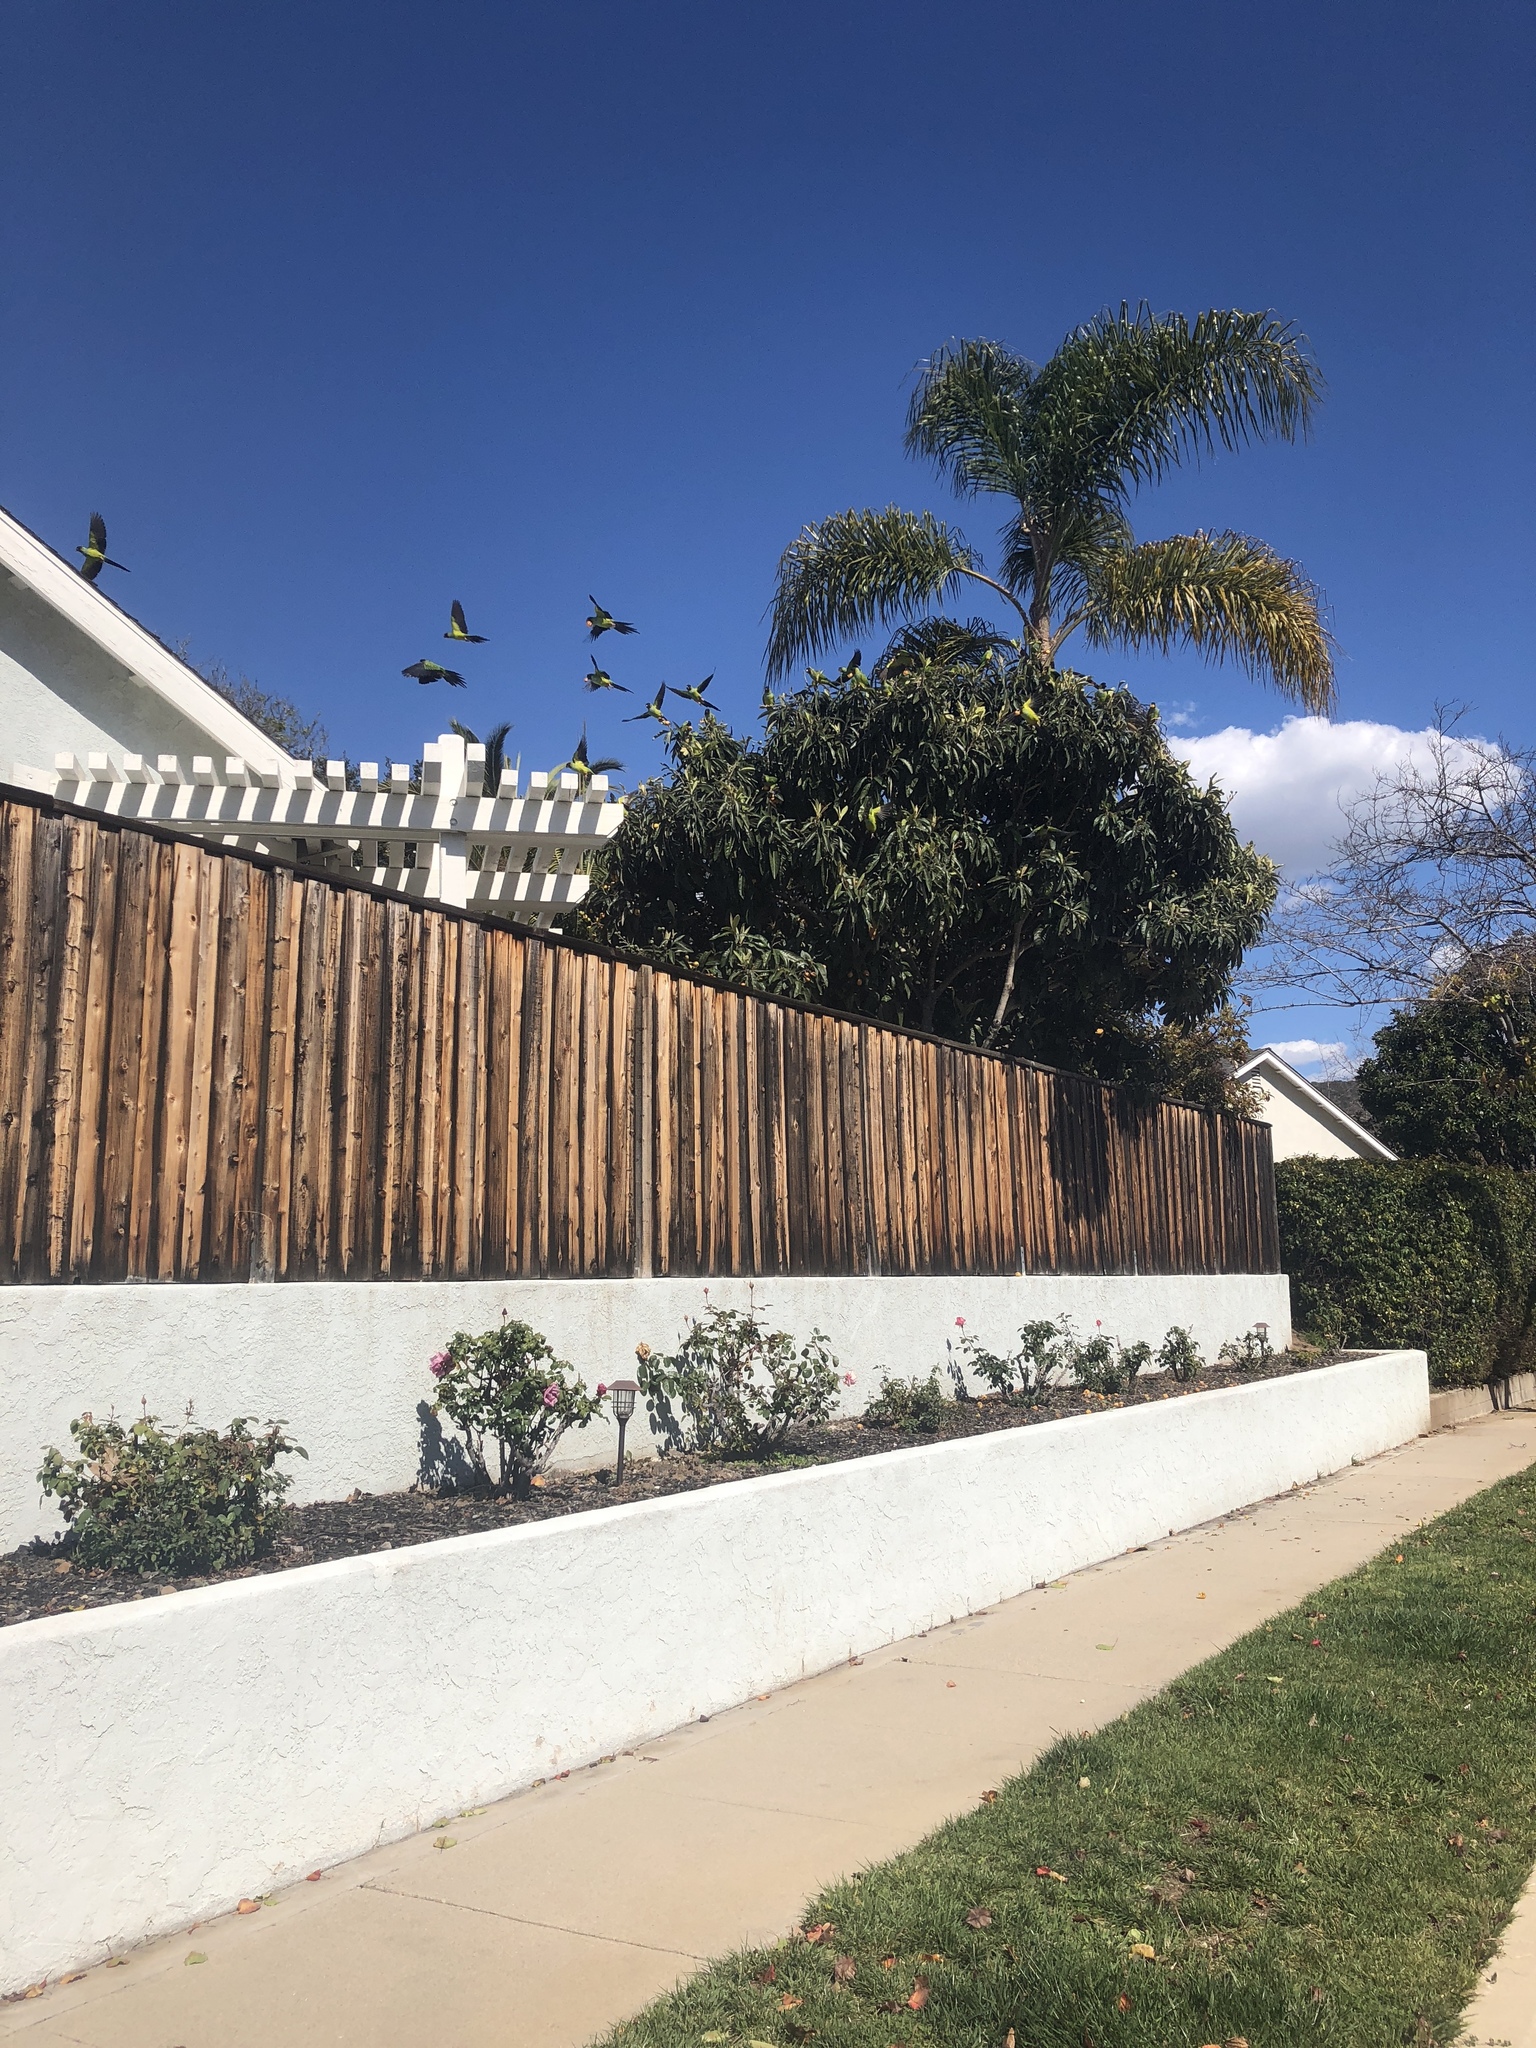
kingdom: Animalia
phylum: Chordata
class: Aves
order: Psittaciformes
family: Psittacidae
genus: Nandayus
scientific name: Nandayus nenday
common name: Nanday parakeet
